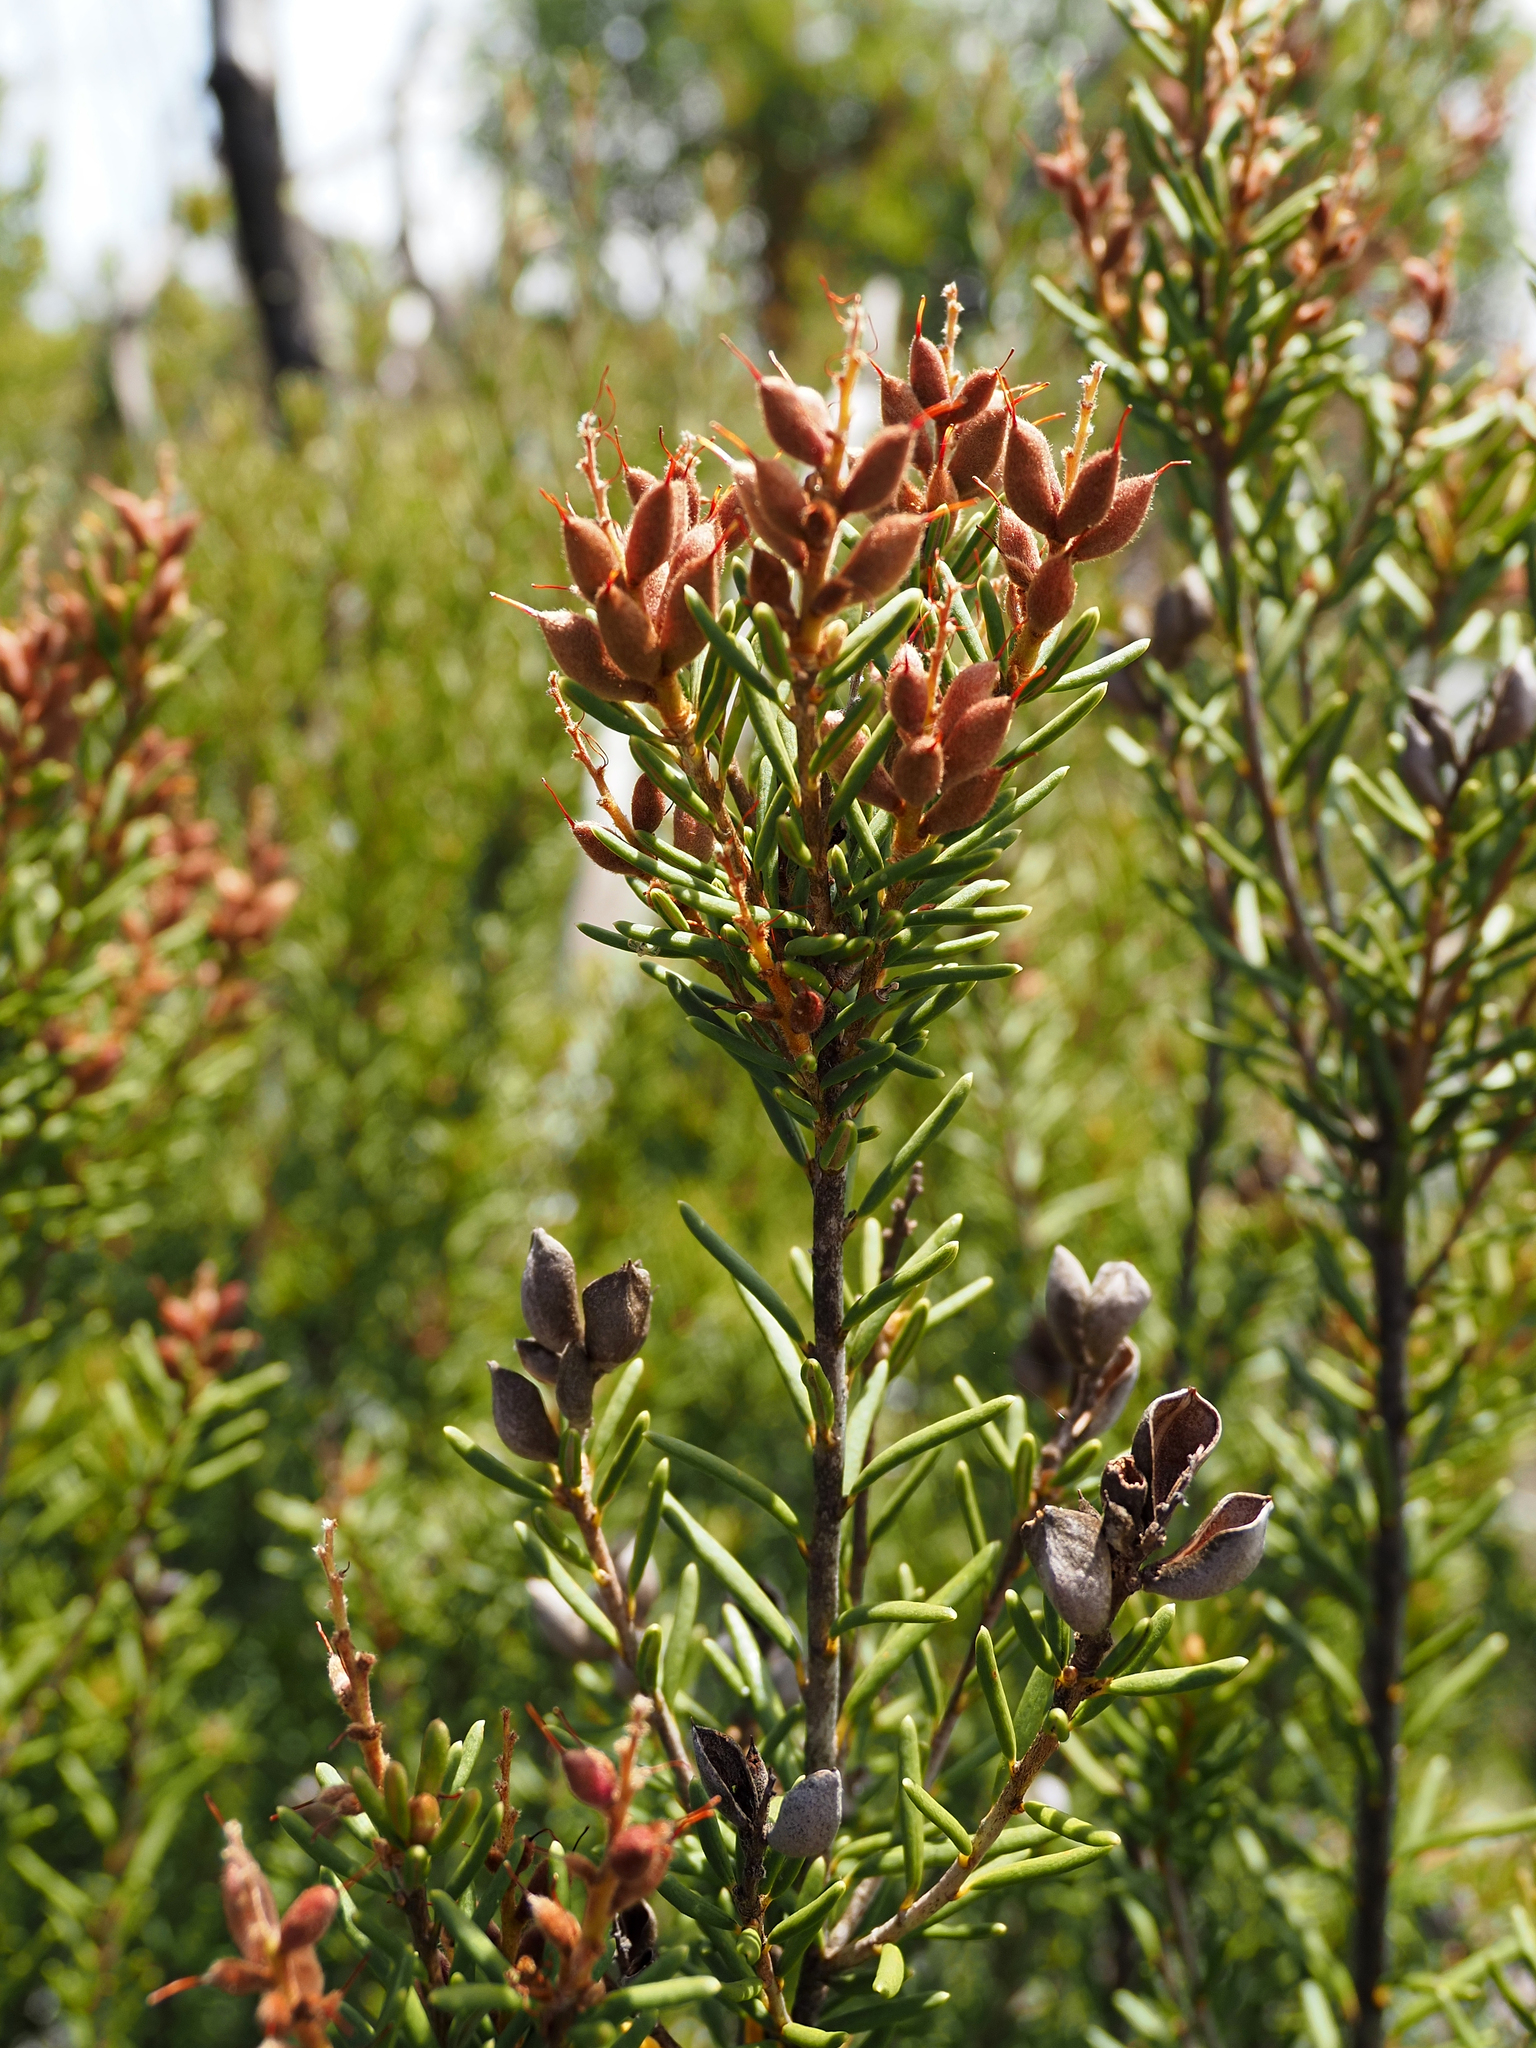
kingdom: Plantae
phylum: Tracheophyta
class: Magnoliopsida
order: Proteales
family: Proteaceae
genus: Orites
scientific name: Orites revolutus
